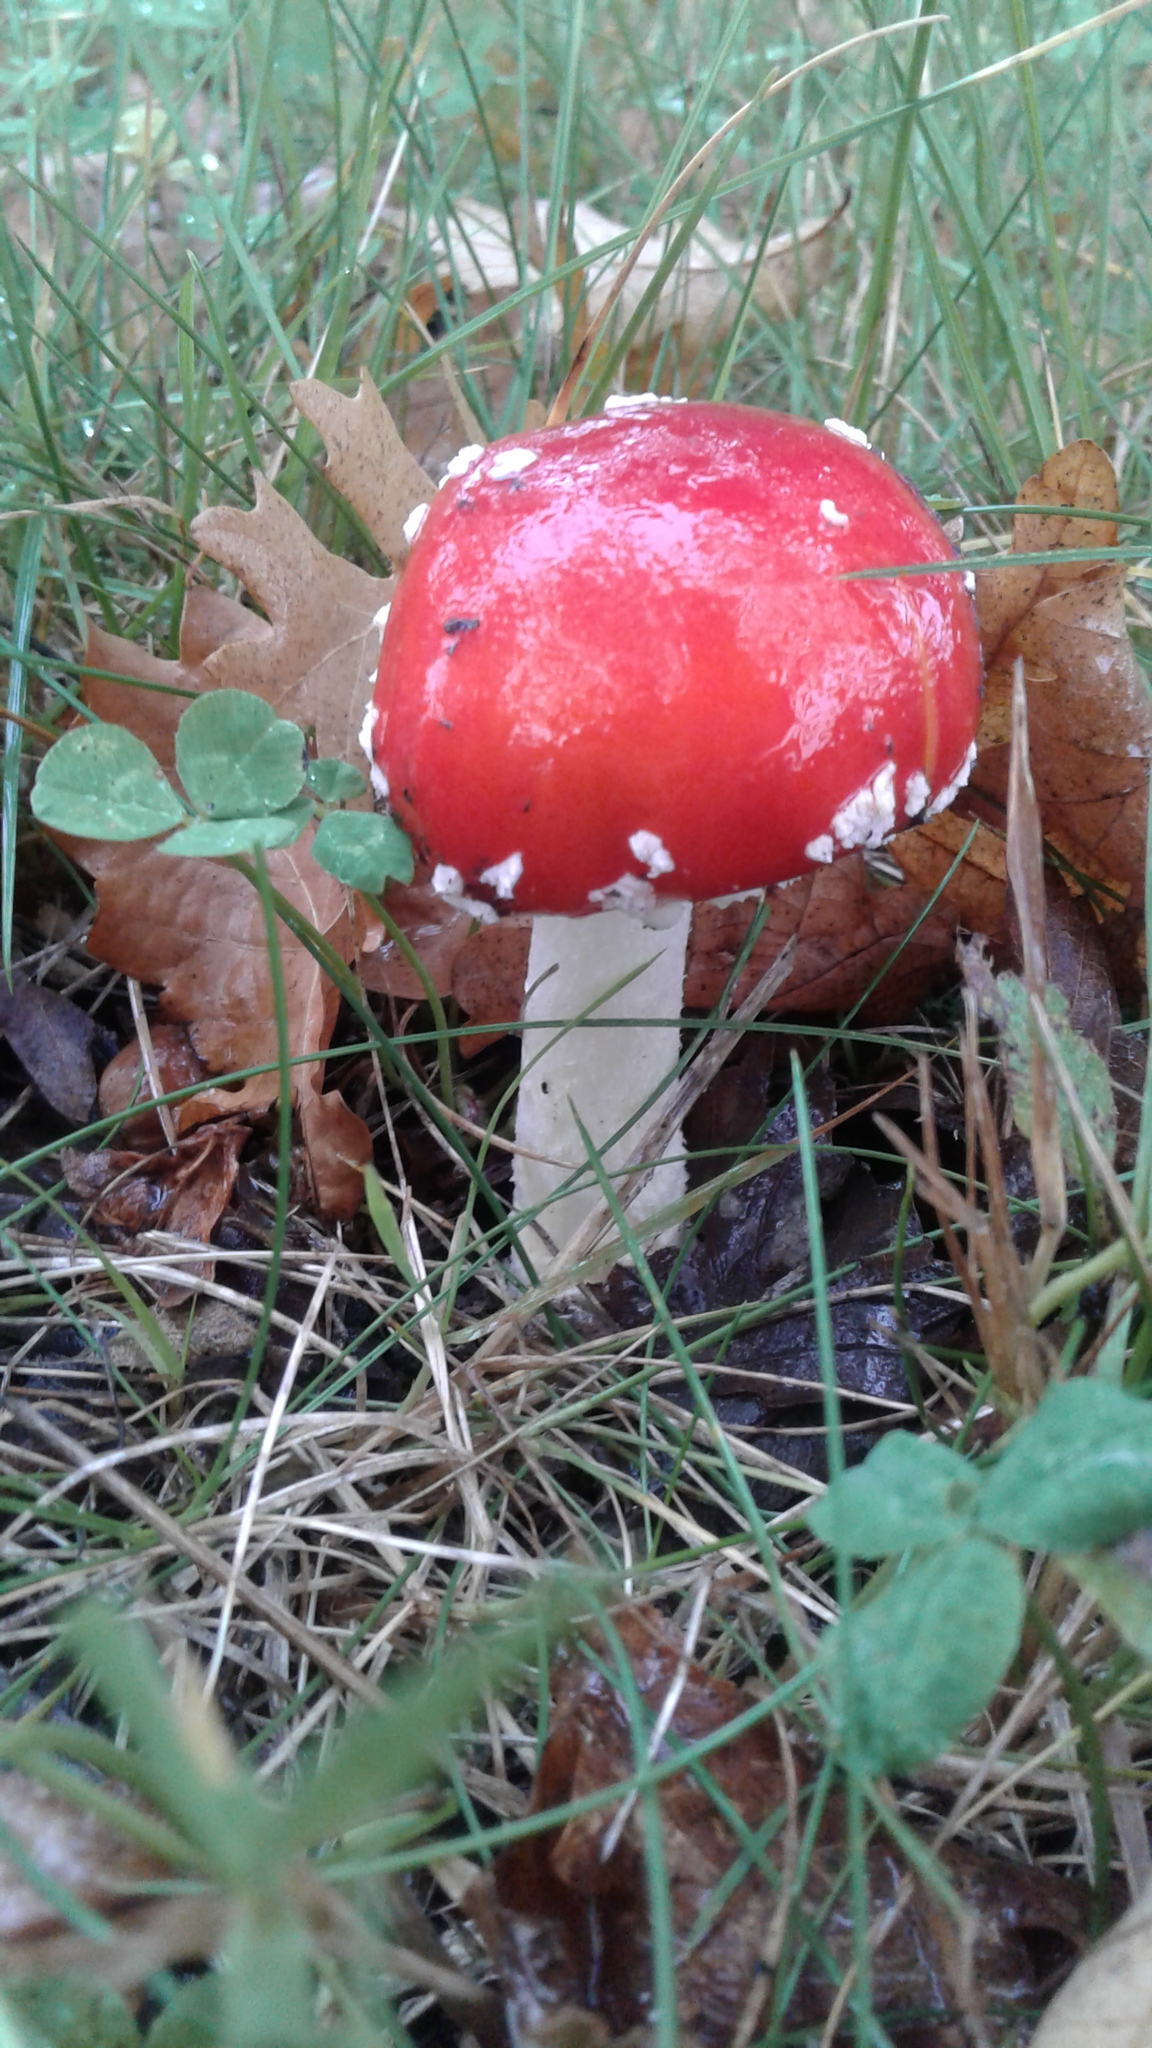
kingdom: Fungi
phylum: Basidiomycota
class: Agaricomycetes
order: Agaricales
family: Amanitaceae
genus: Amanita
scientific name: Amanita muscaria
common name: Fly agaric
